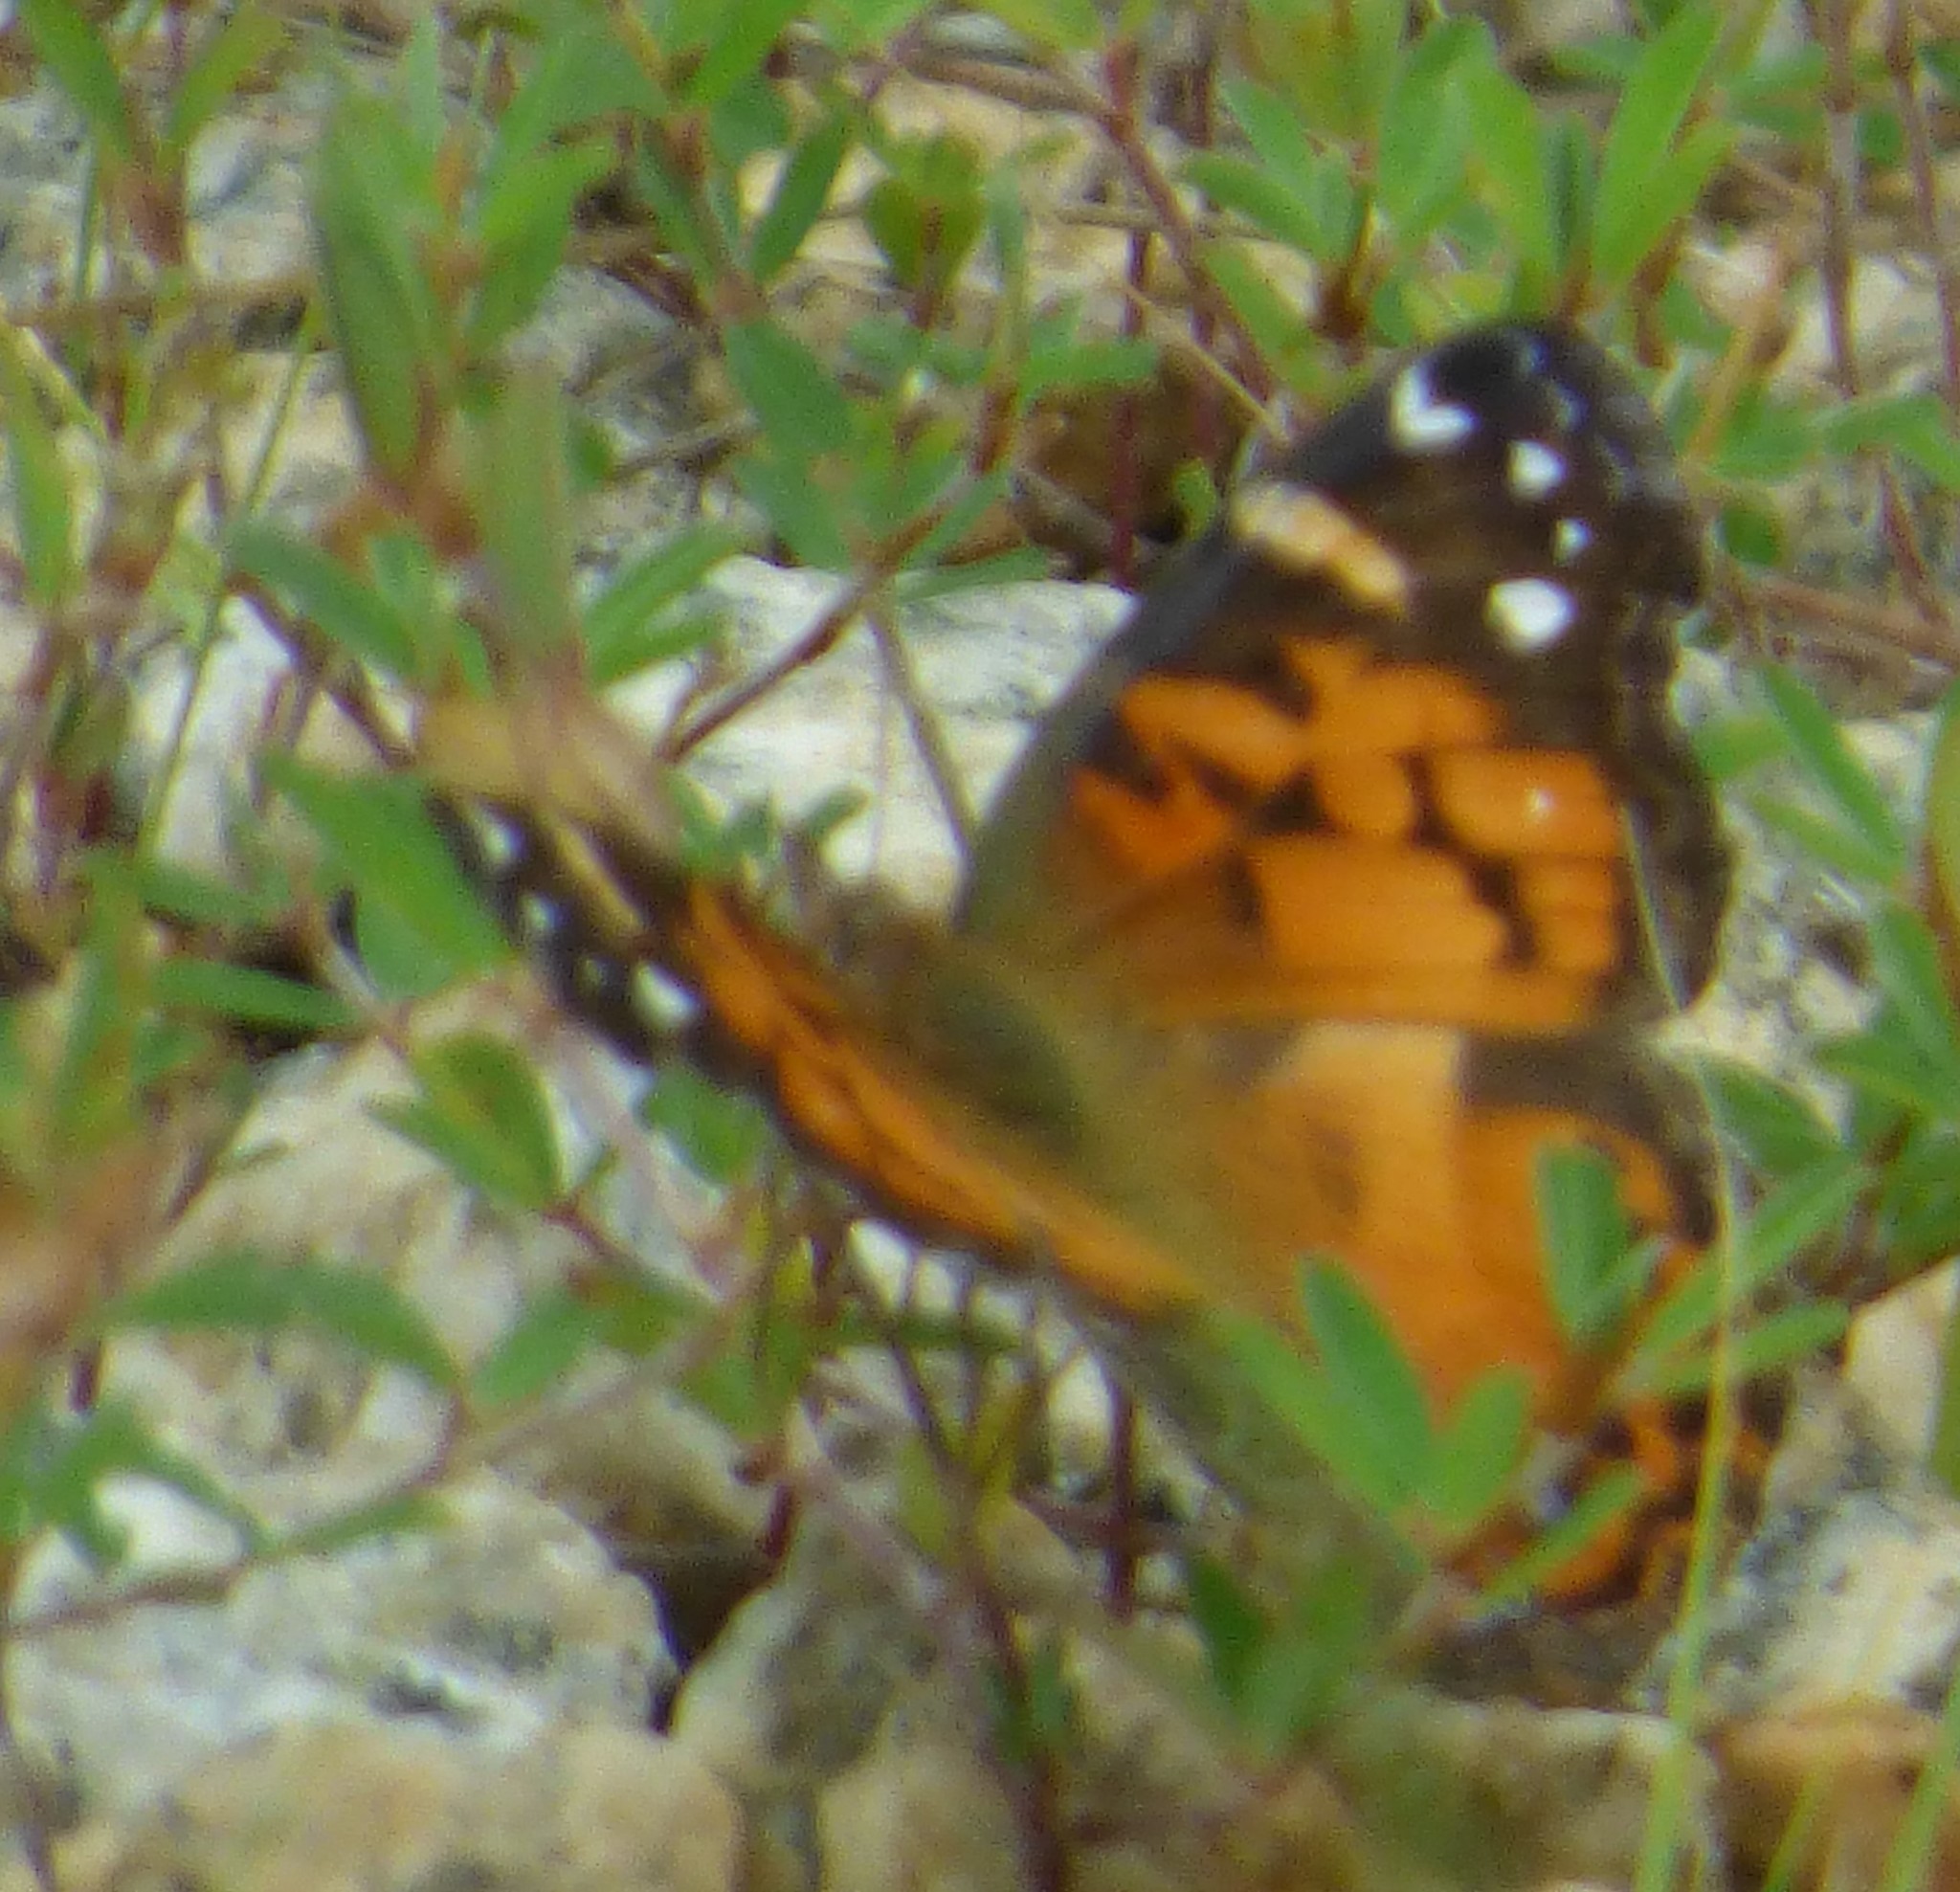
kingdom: Animalia
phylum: Arthropoda
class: Insecta
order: Lepidoptera
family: Nymphalidae
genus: Vanessa
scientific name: Vanessa virginiensis
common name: American lady
